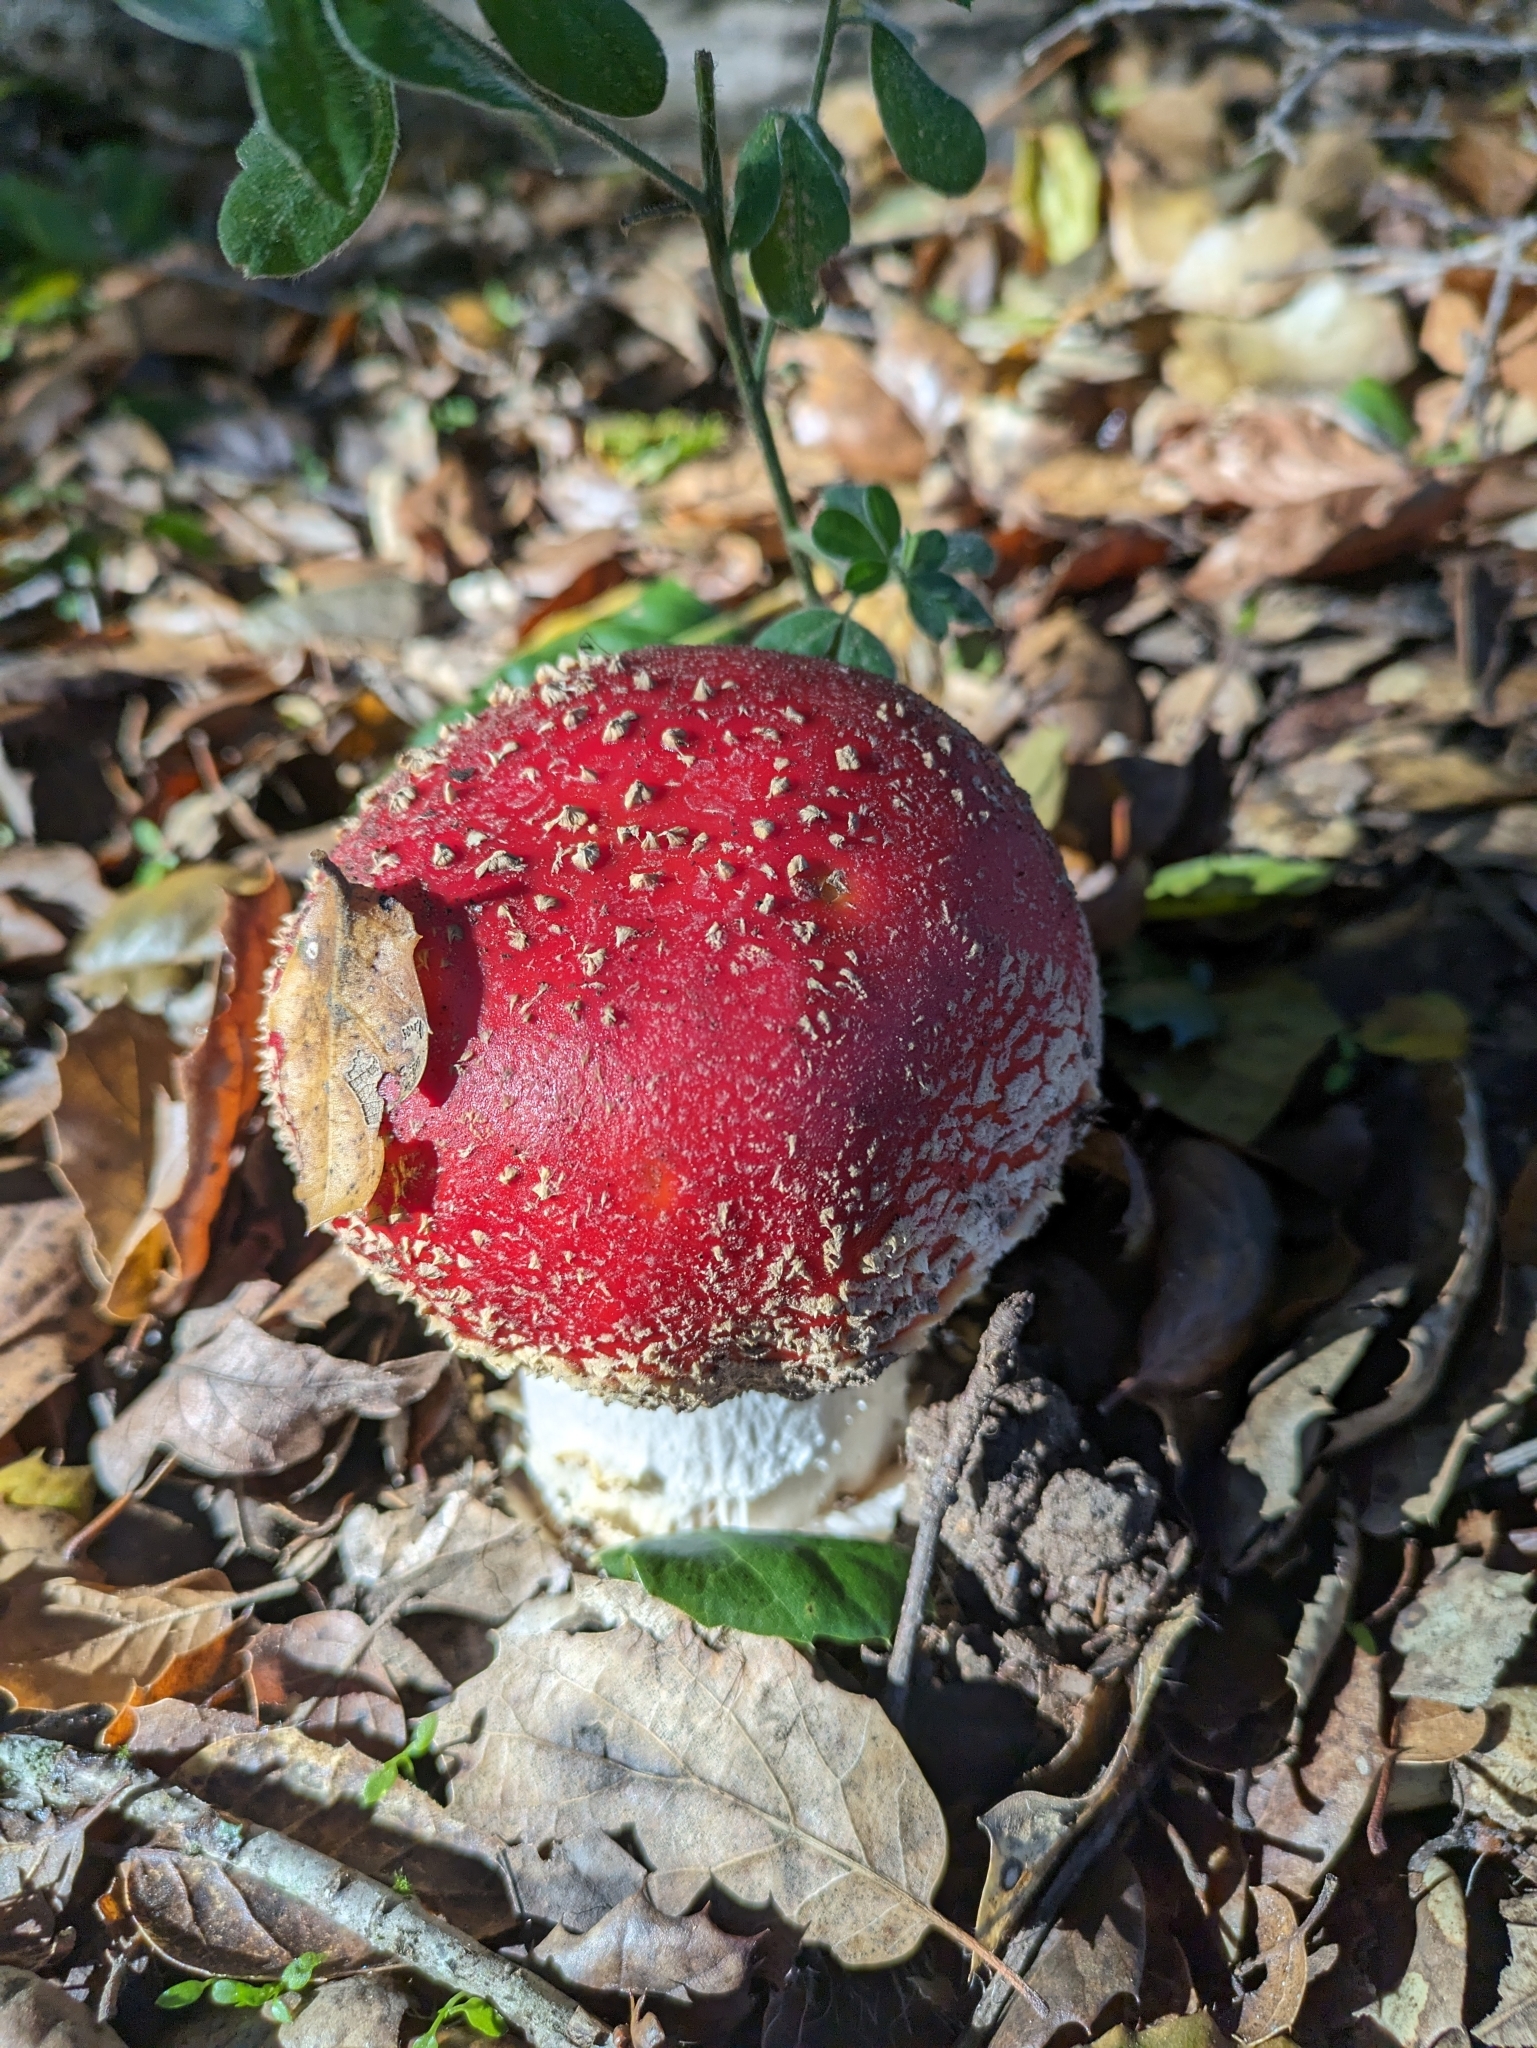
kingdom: Fungi
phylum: Basidiomycota
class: Agaricomycetes
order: Agaricales
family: Amanitaceae
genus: Amanita
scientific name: Amanita muscaria
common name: Fly agaric
